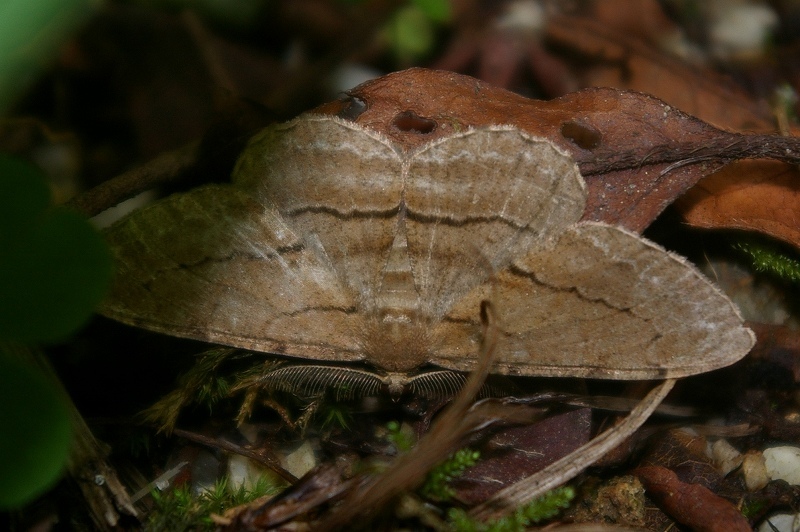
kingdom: Animalia
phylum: Arthropoda
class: Insecta
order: Lepidoptera
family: Geometridae
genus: Apocleora
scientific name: Apocleora rimosa
